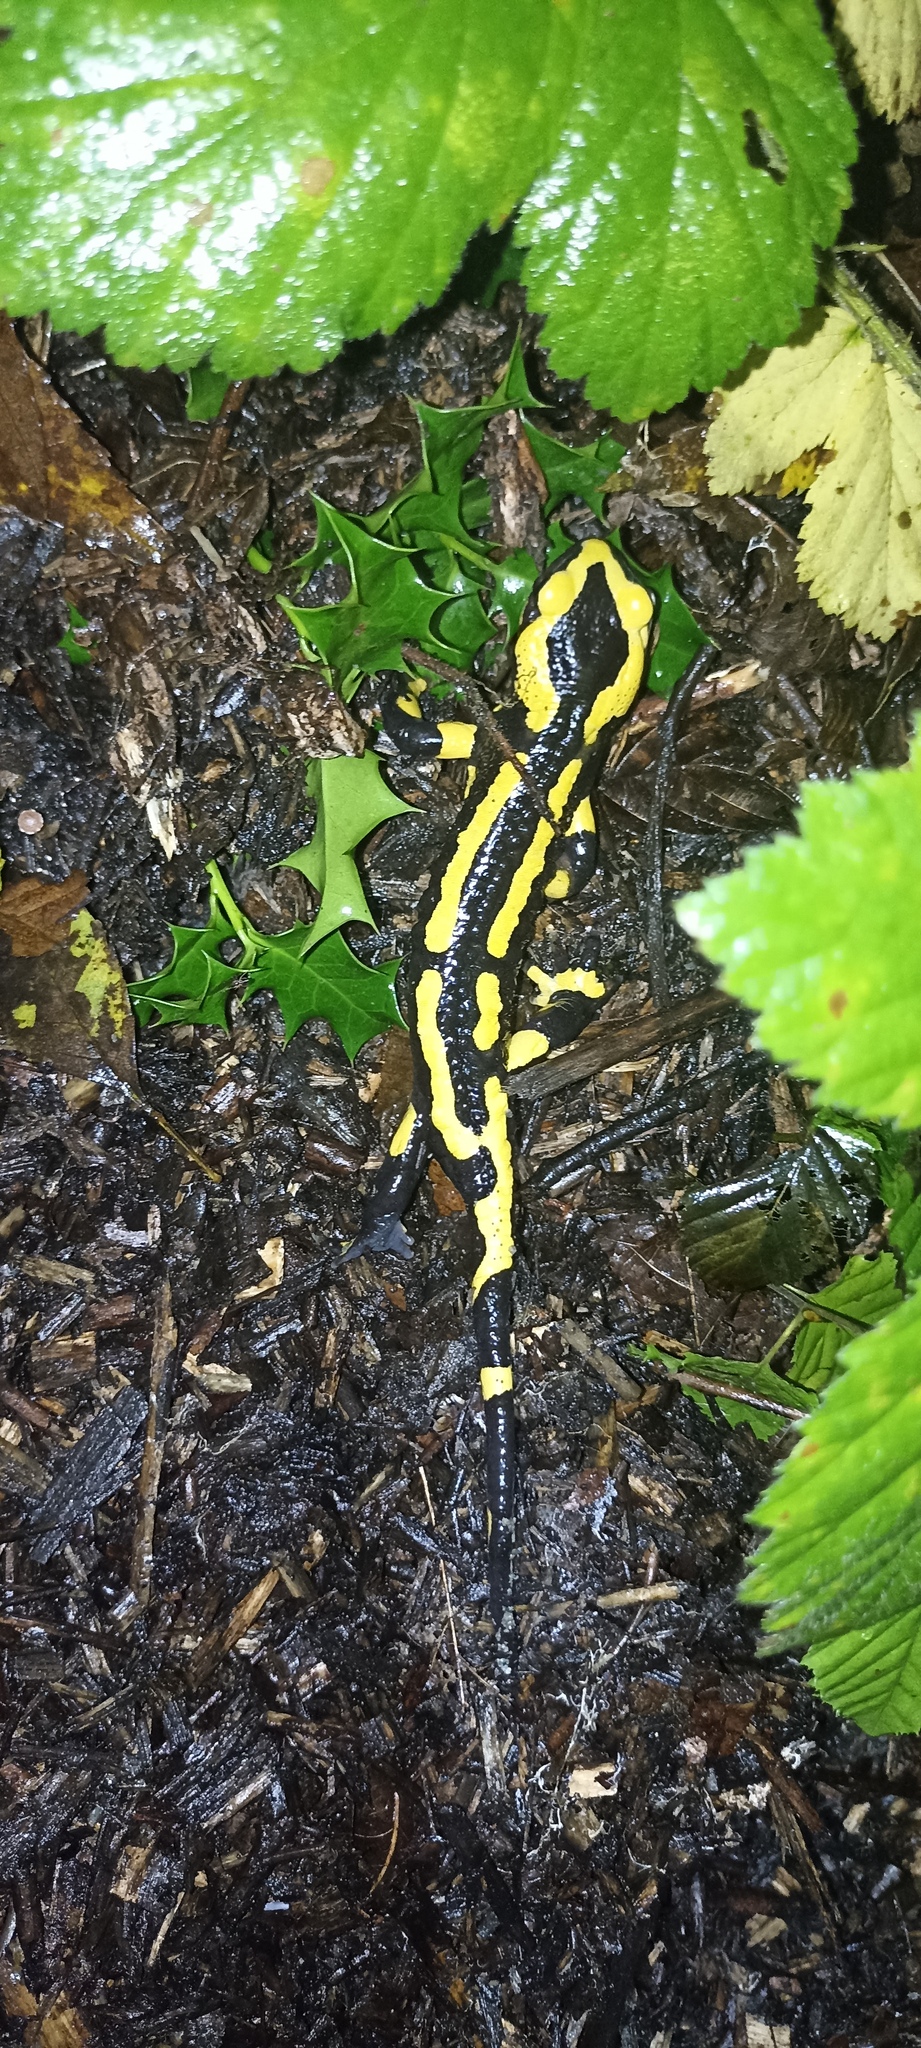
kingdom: Animalia
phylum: Chordata
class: Amphibia
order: Caudata
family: Salamandridae
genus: Salamandra
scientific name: Salamandra salamandra
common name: Fire salamander
